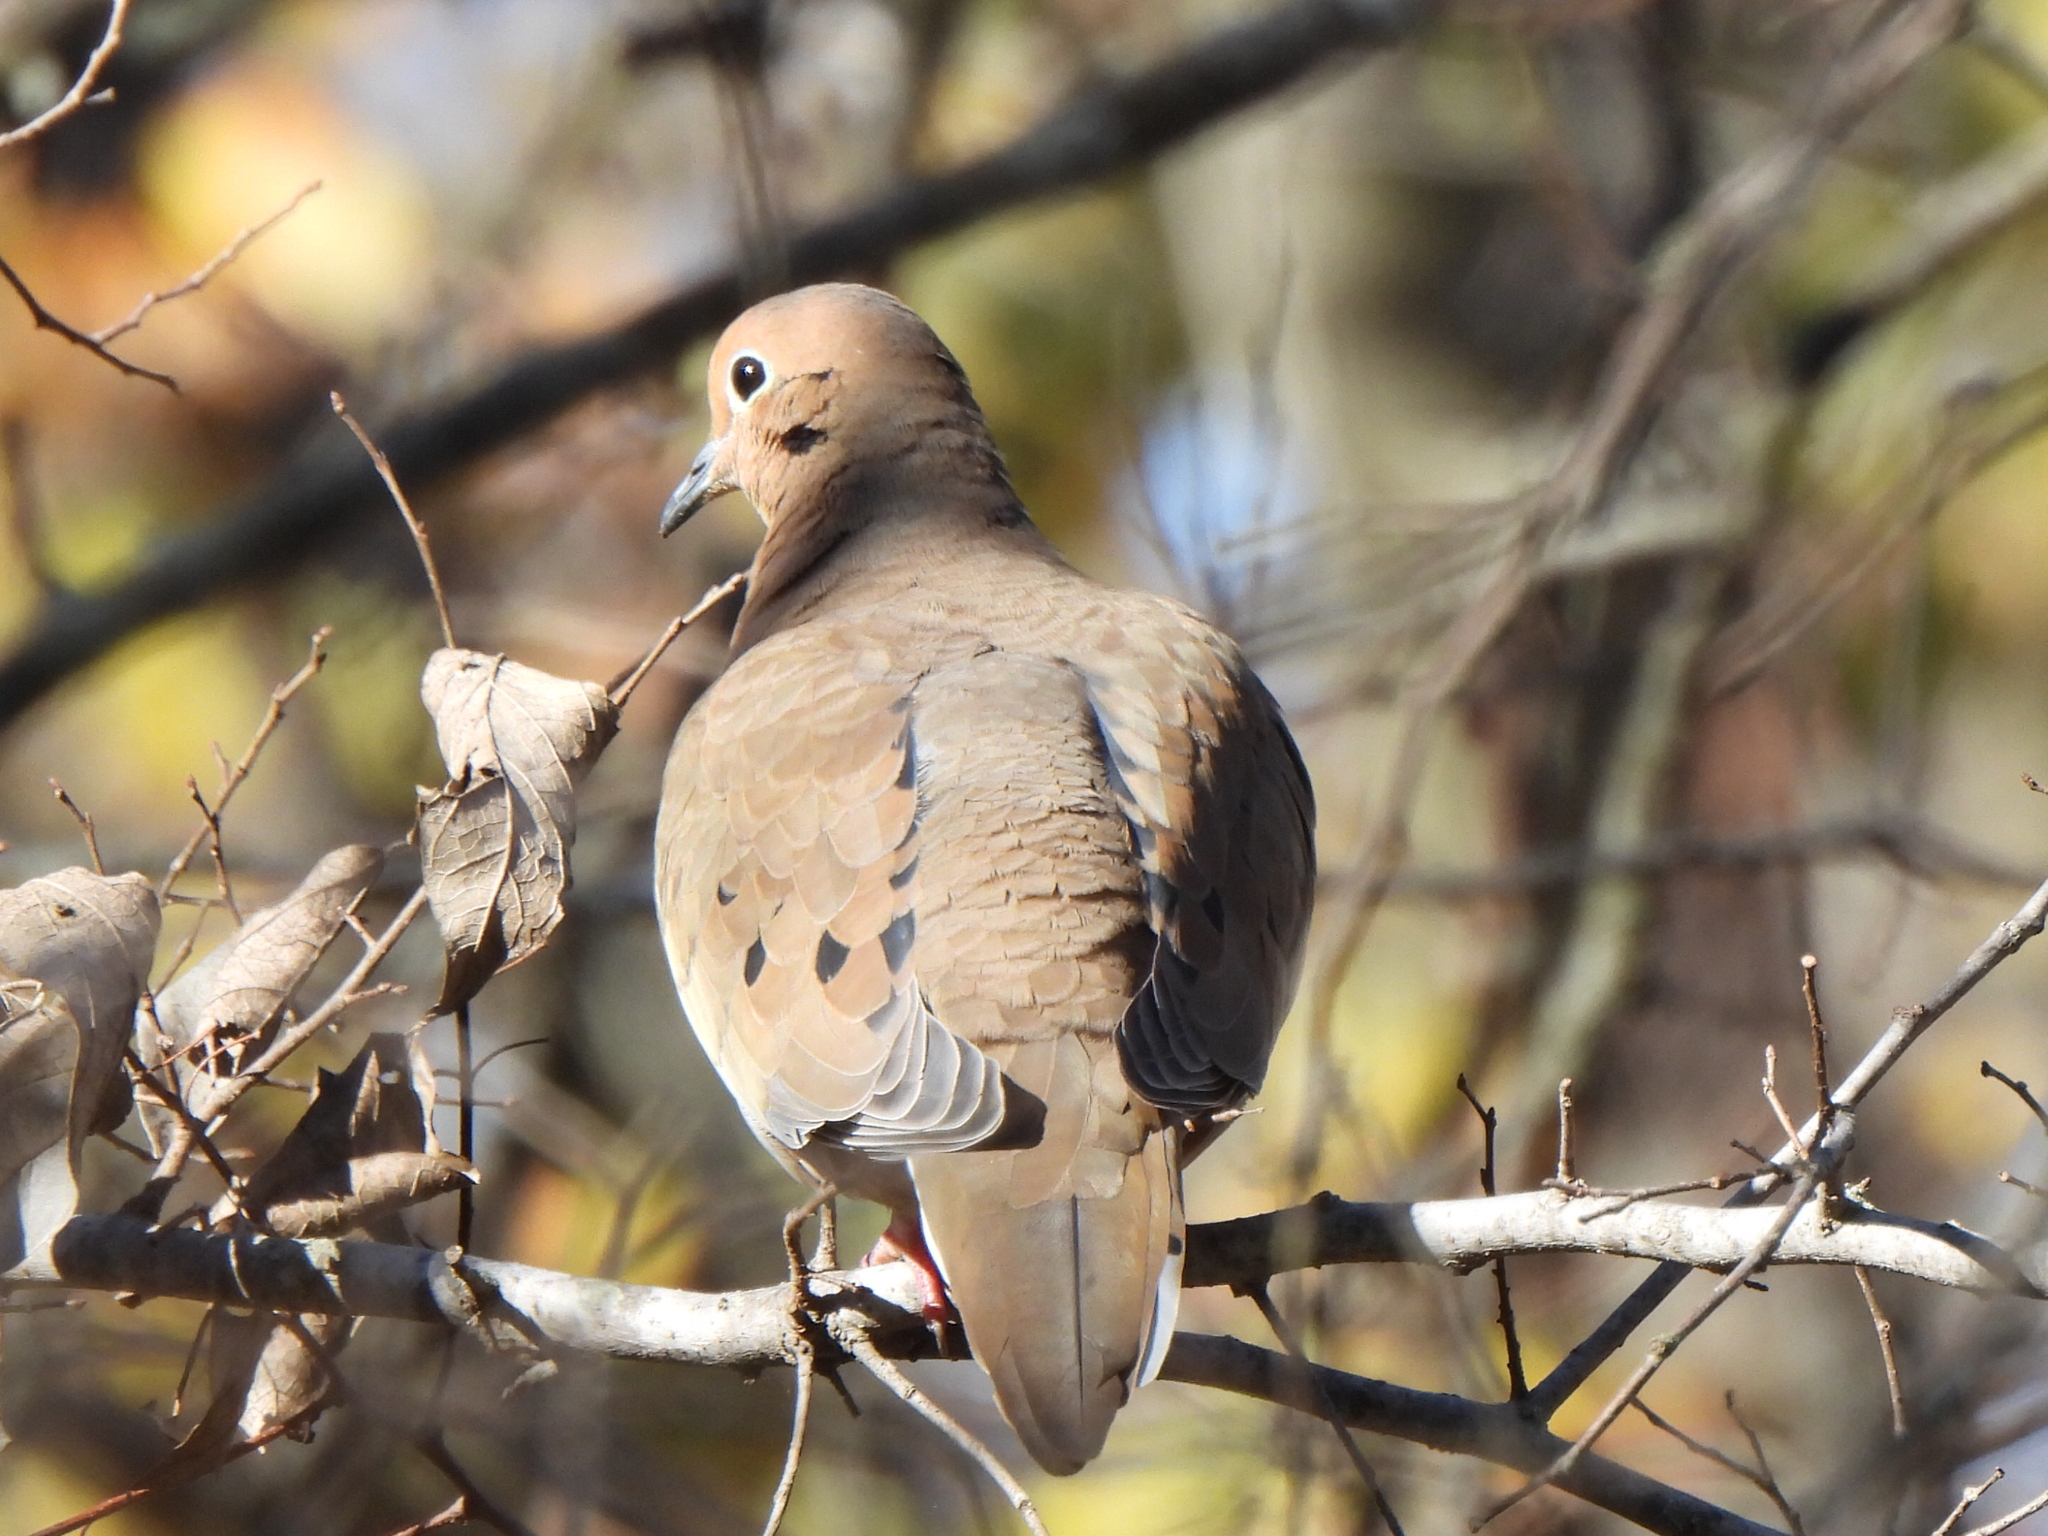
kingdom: Animalia
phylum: Chordata
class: Aves
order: Columbiformes
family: Columbidae
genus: Zenaida
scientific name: Zenaida macroura
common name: Mourning dove
